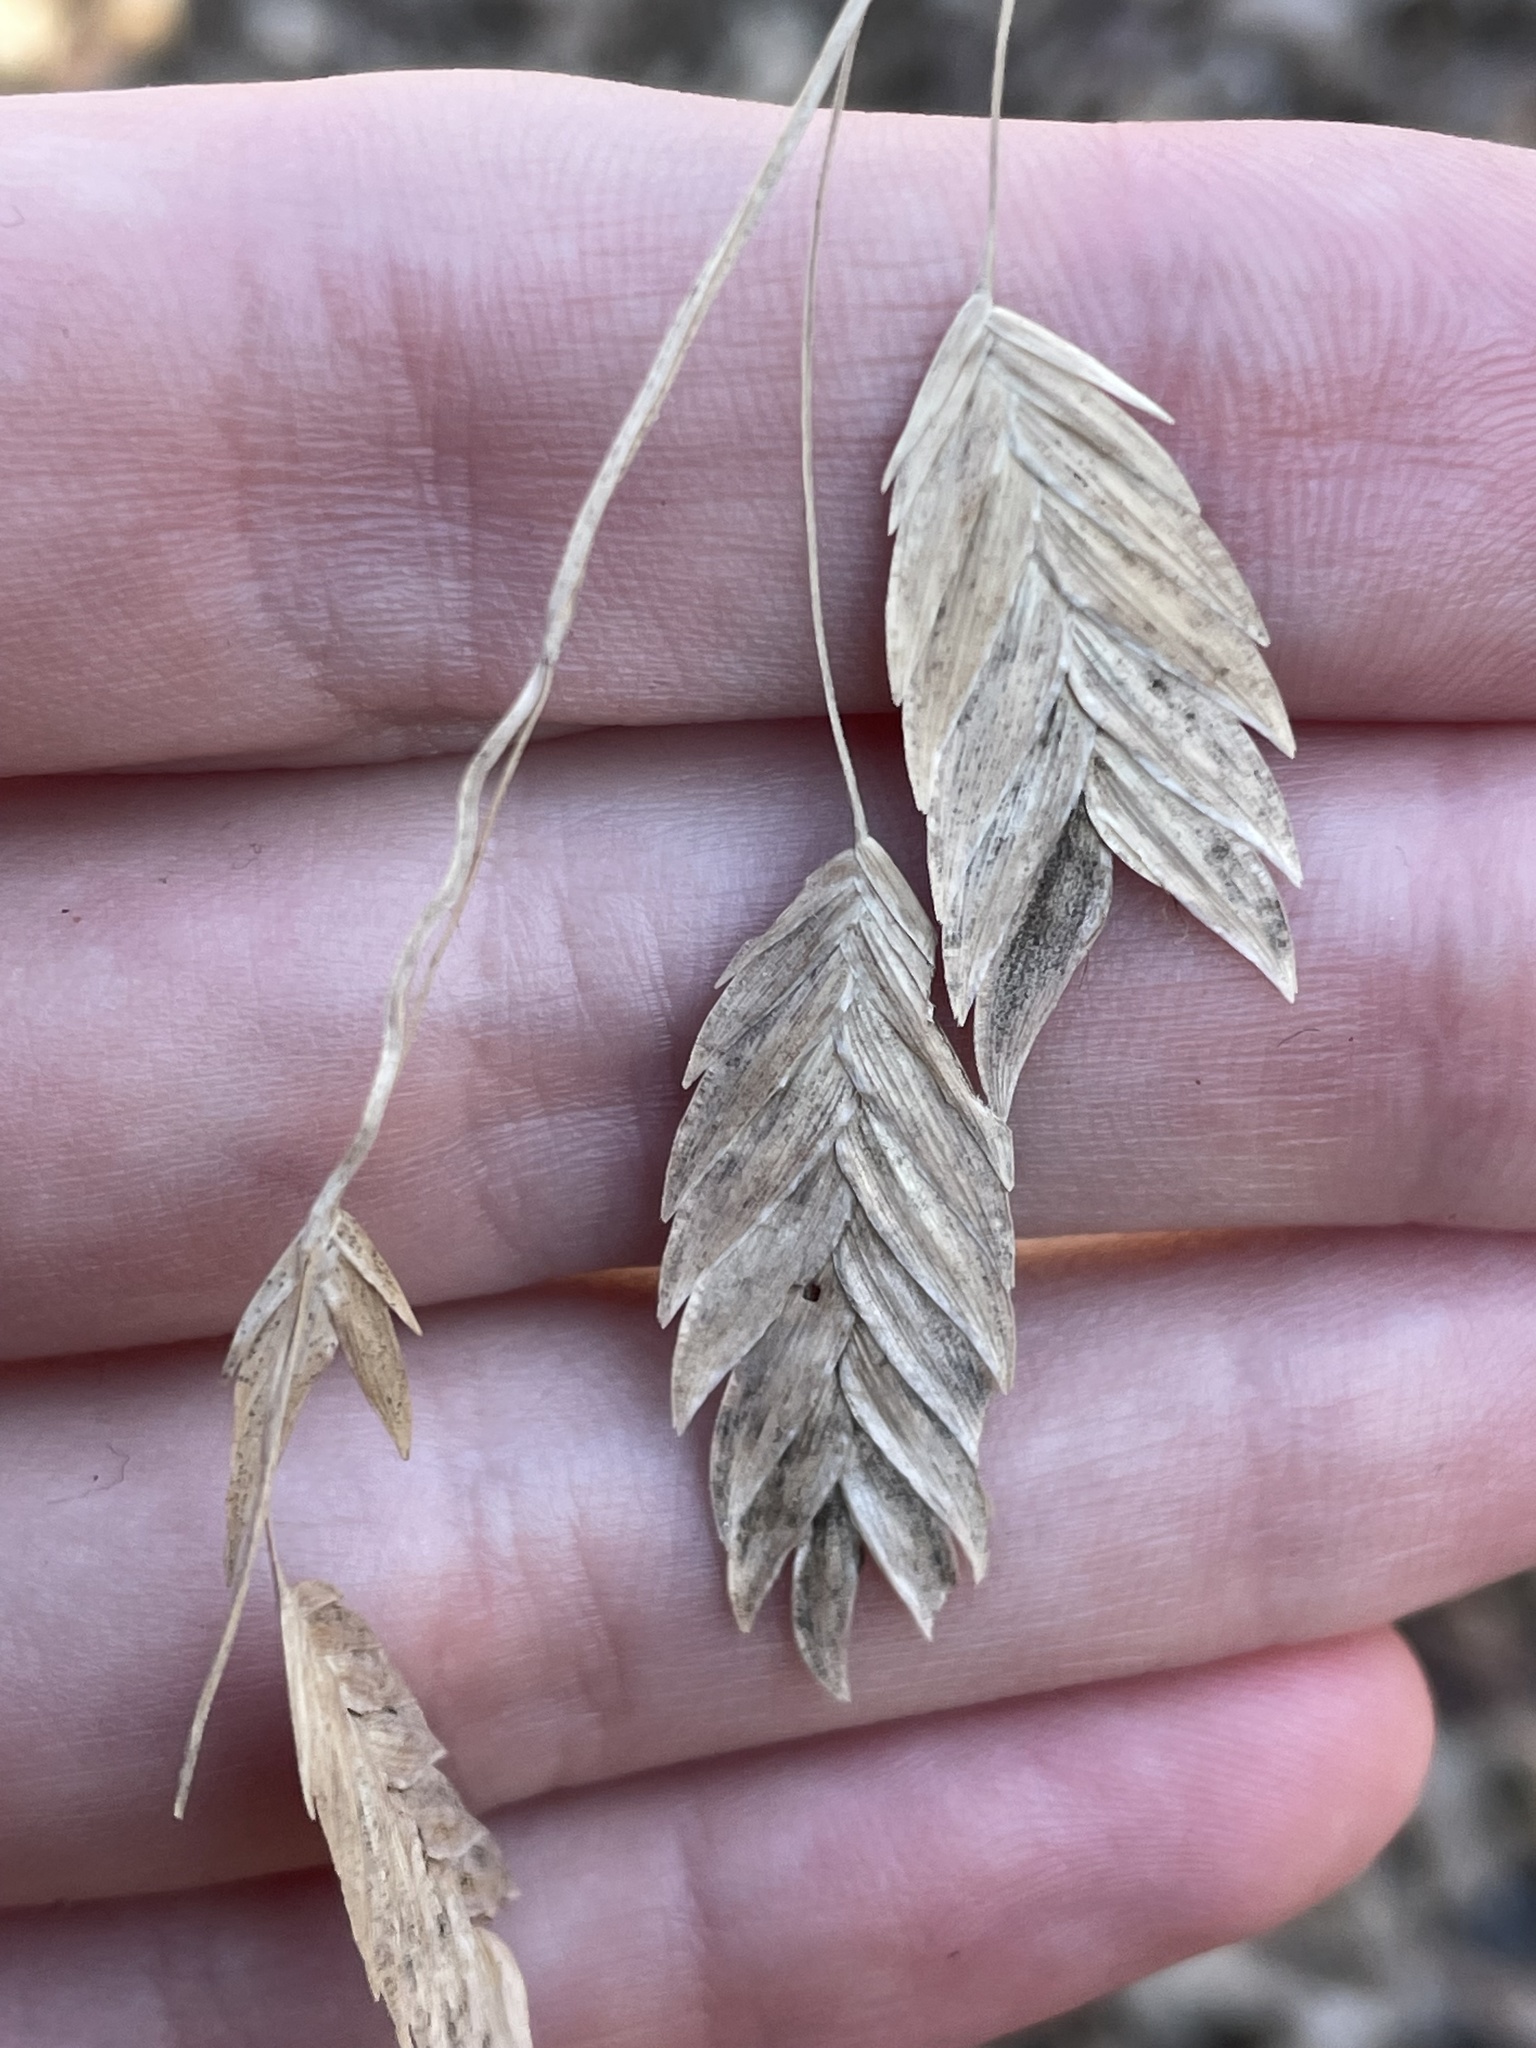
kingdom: Plantae
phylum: Tracheophyta
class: Liliopsida
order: Poales
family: Poaceae
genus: Chasmanthium
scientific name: Chasmanthium latifolium
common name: Broad-leaved chasmanthium
